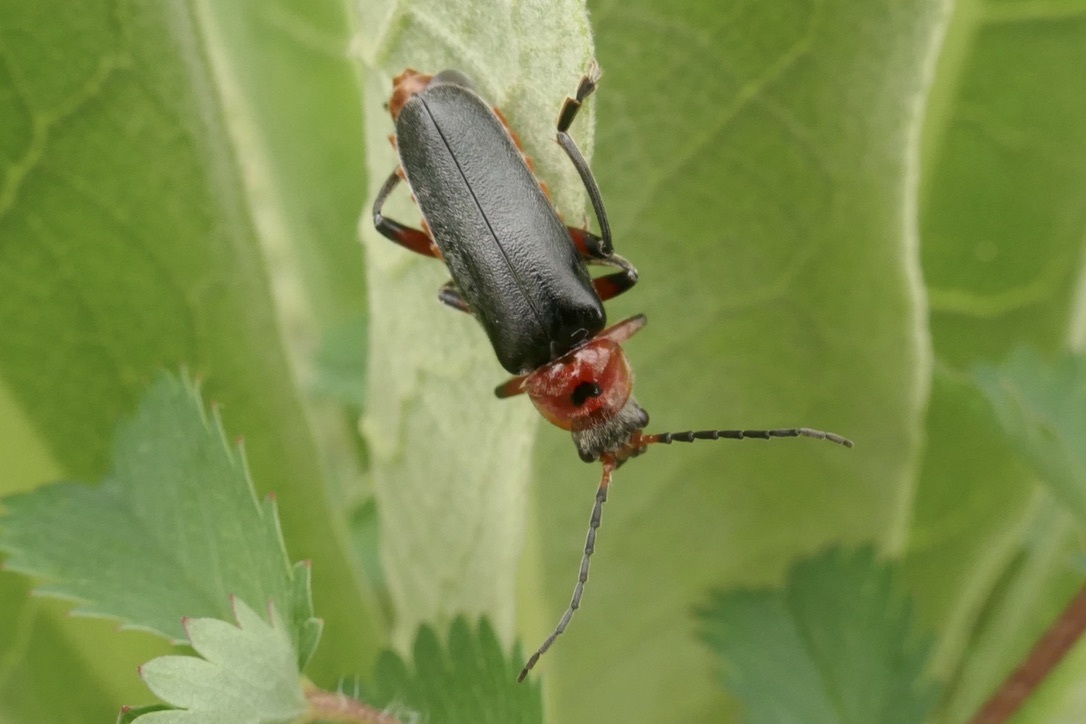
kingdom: Animalia
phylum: Arthropoda
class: Insecta
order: Coleoptera
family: Cantharidae
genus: Cantharis
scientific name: Cantharis rustica
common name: Soldier beetle
